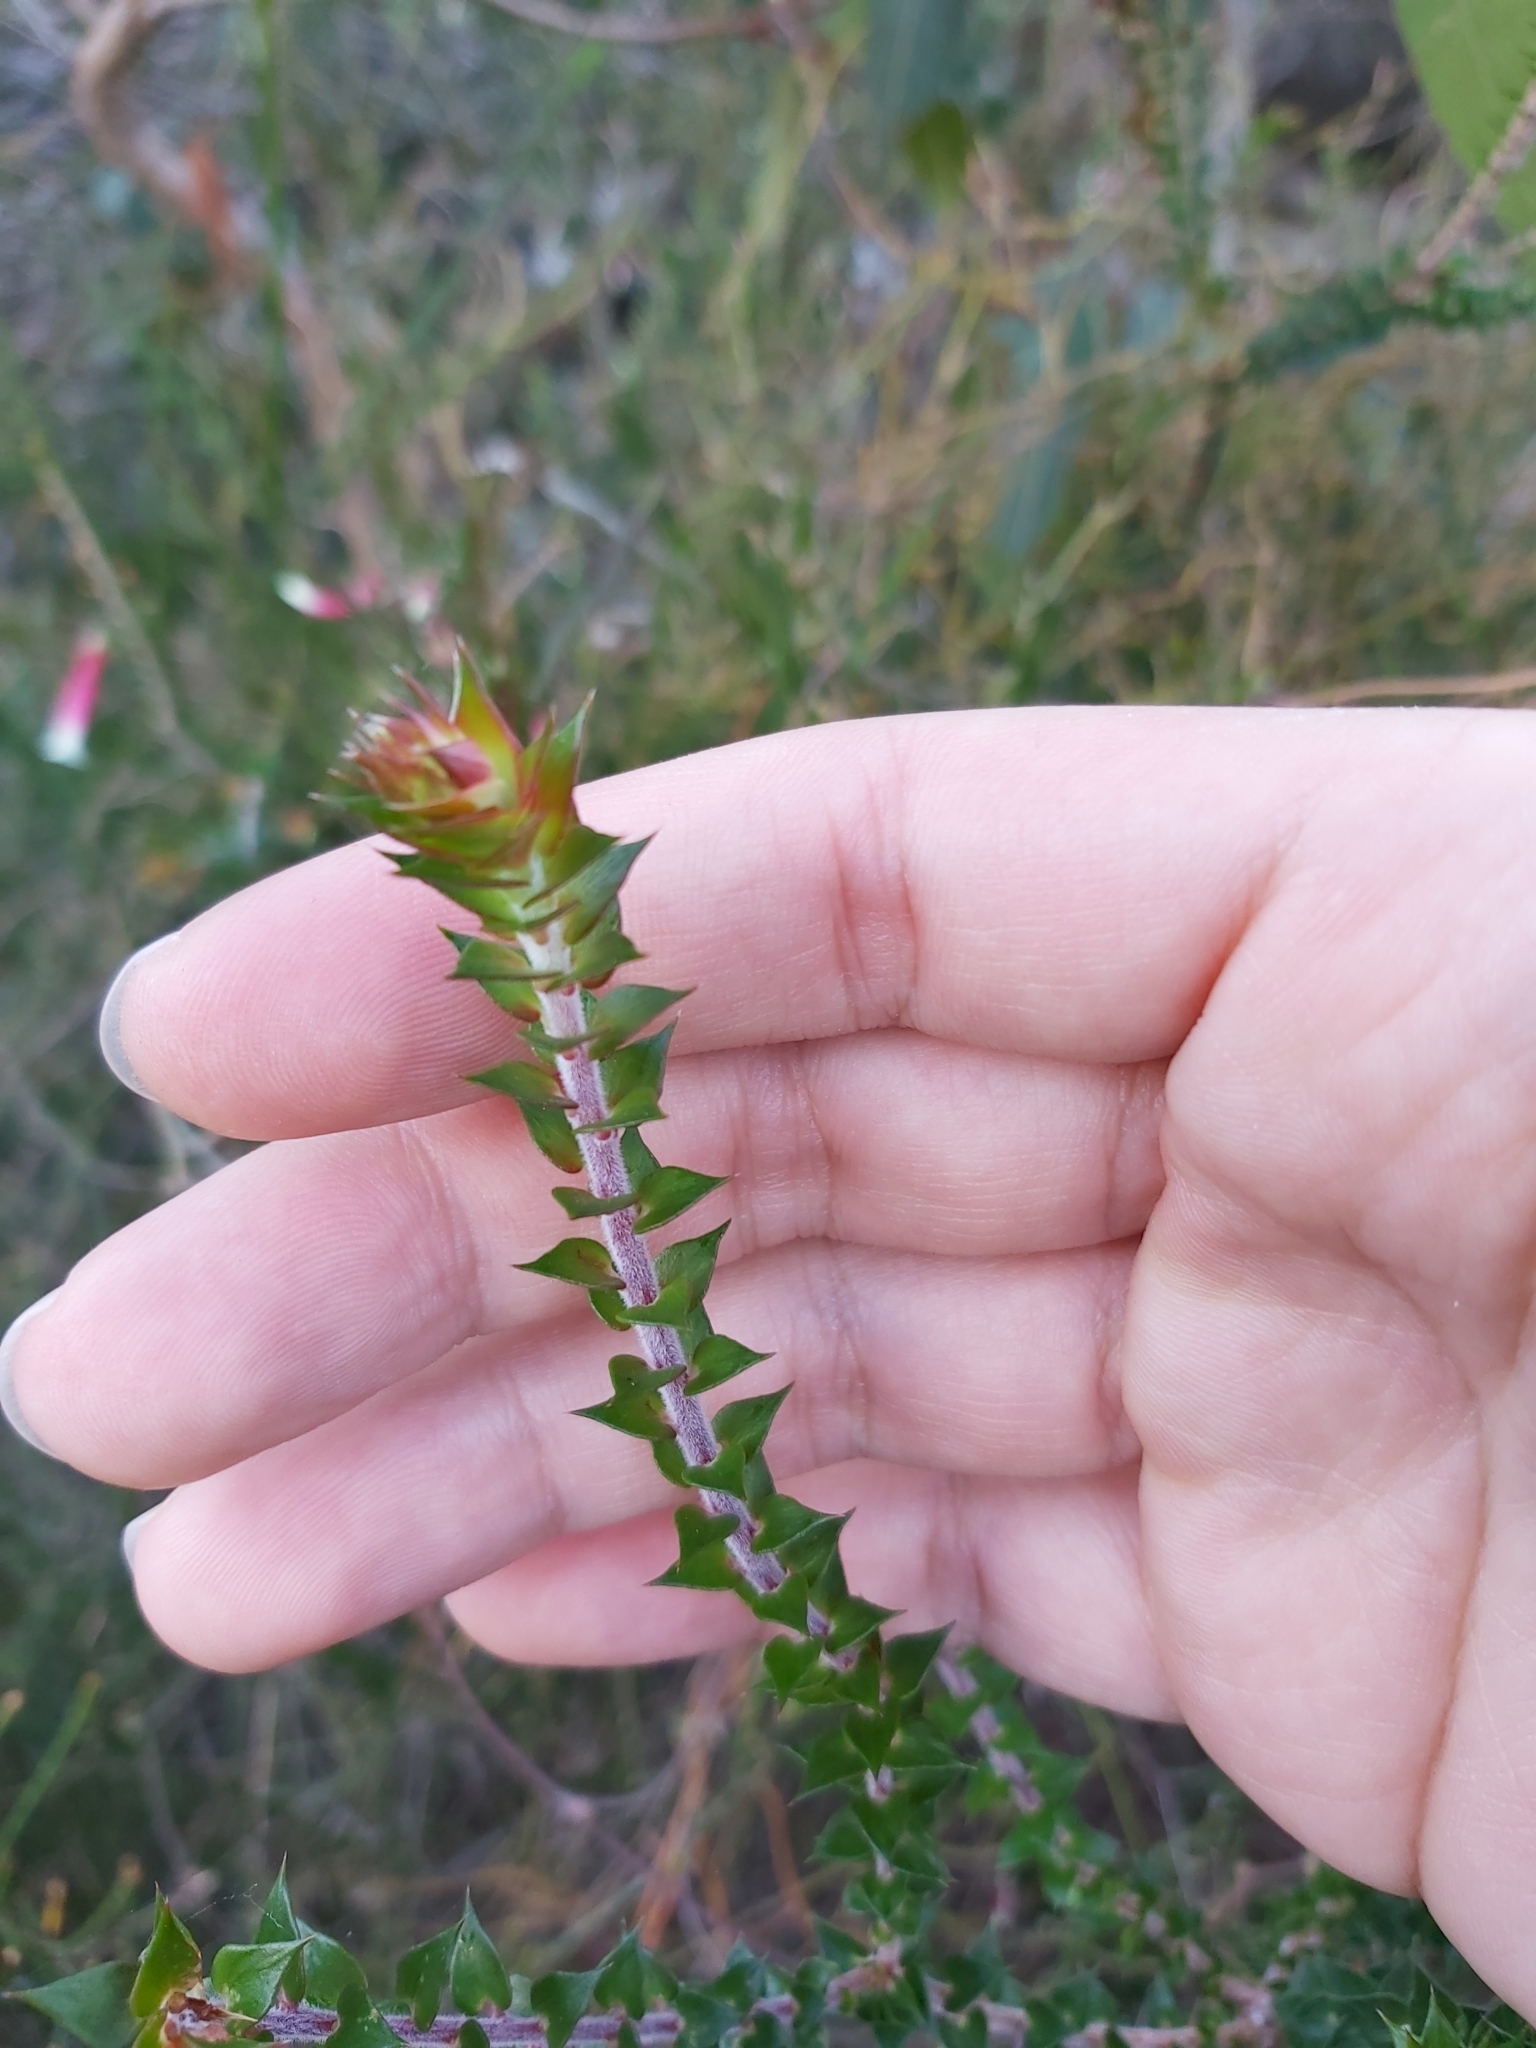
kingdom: Plantae
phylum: Tracheophyta
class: Magnoliopsida
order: Ericales
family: Ericaceae
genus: Epacris
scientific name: Epacris longiflora
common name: Fuchsia-heath
